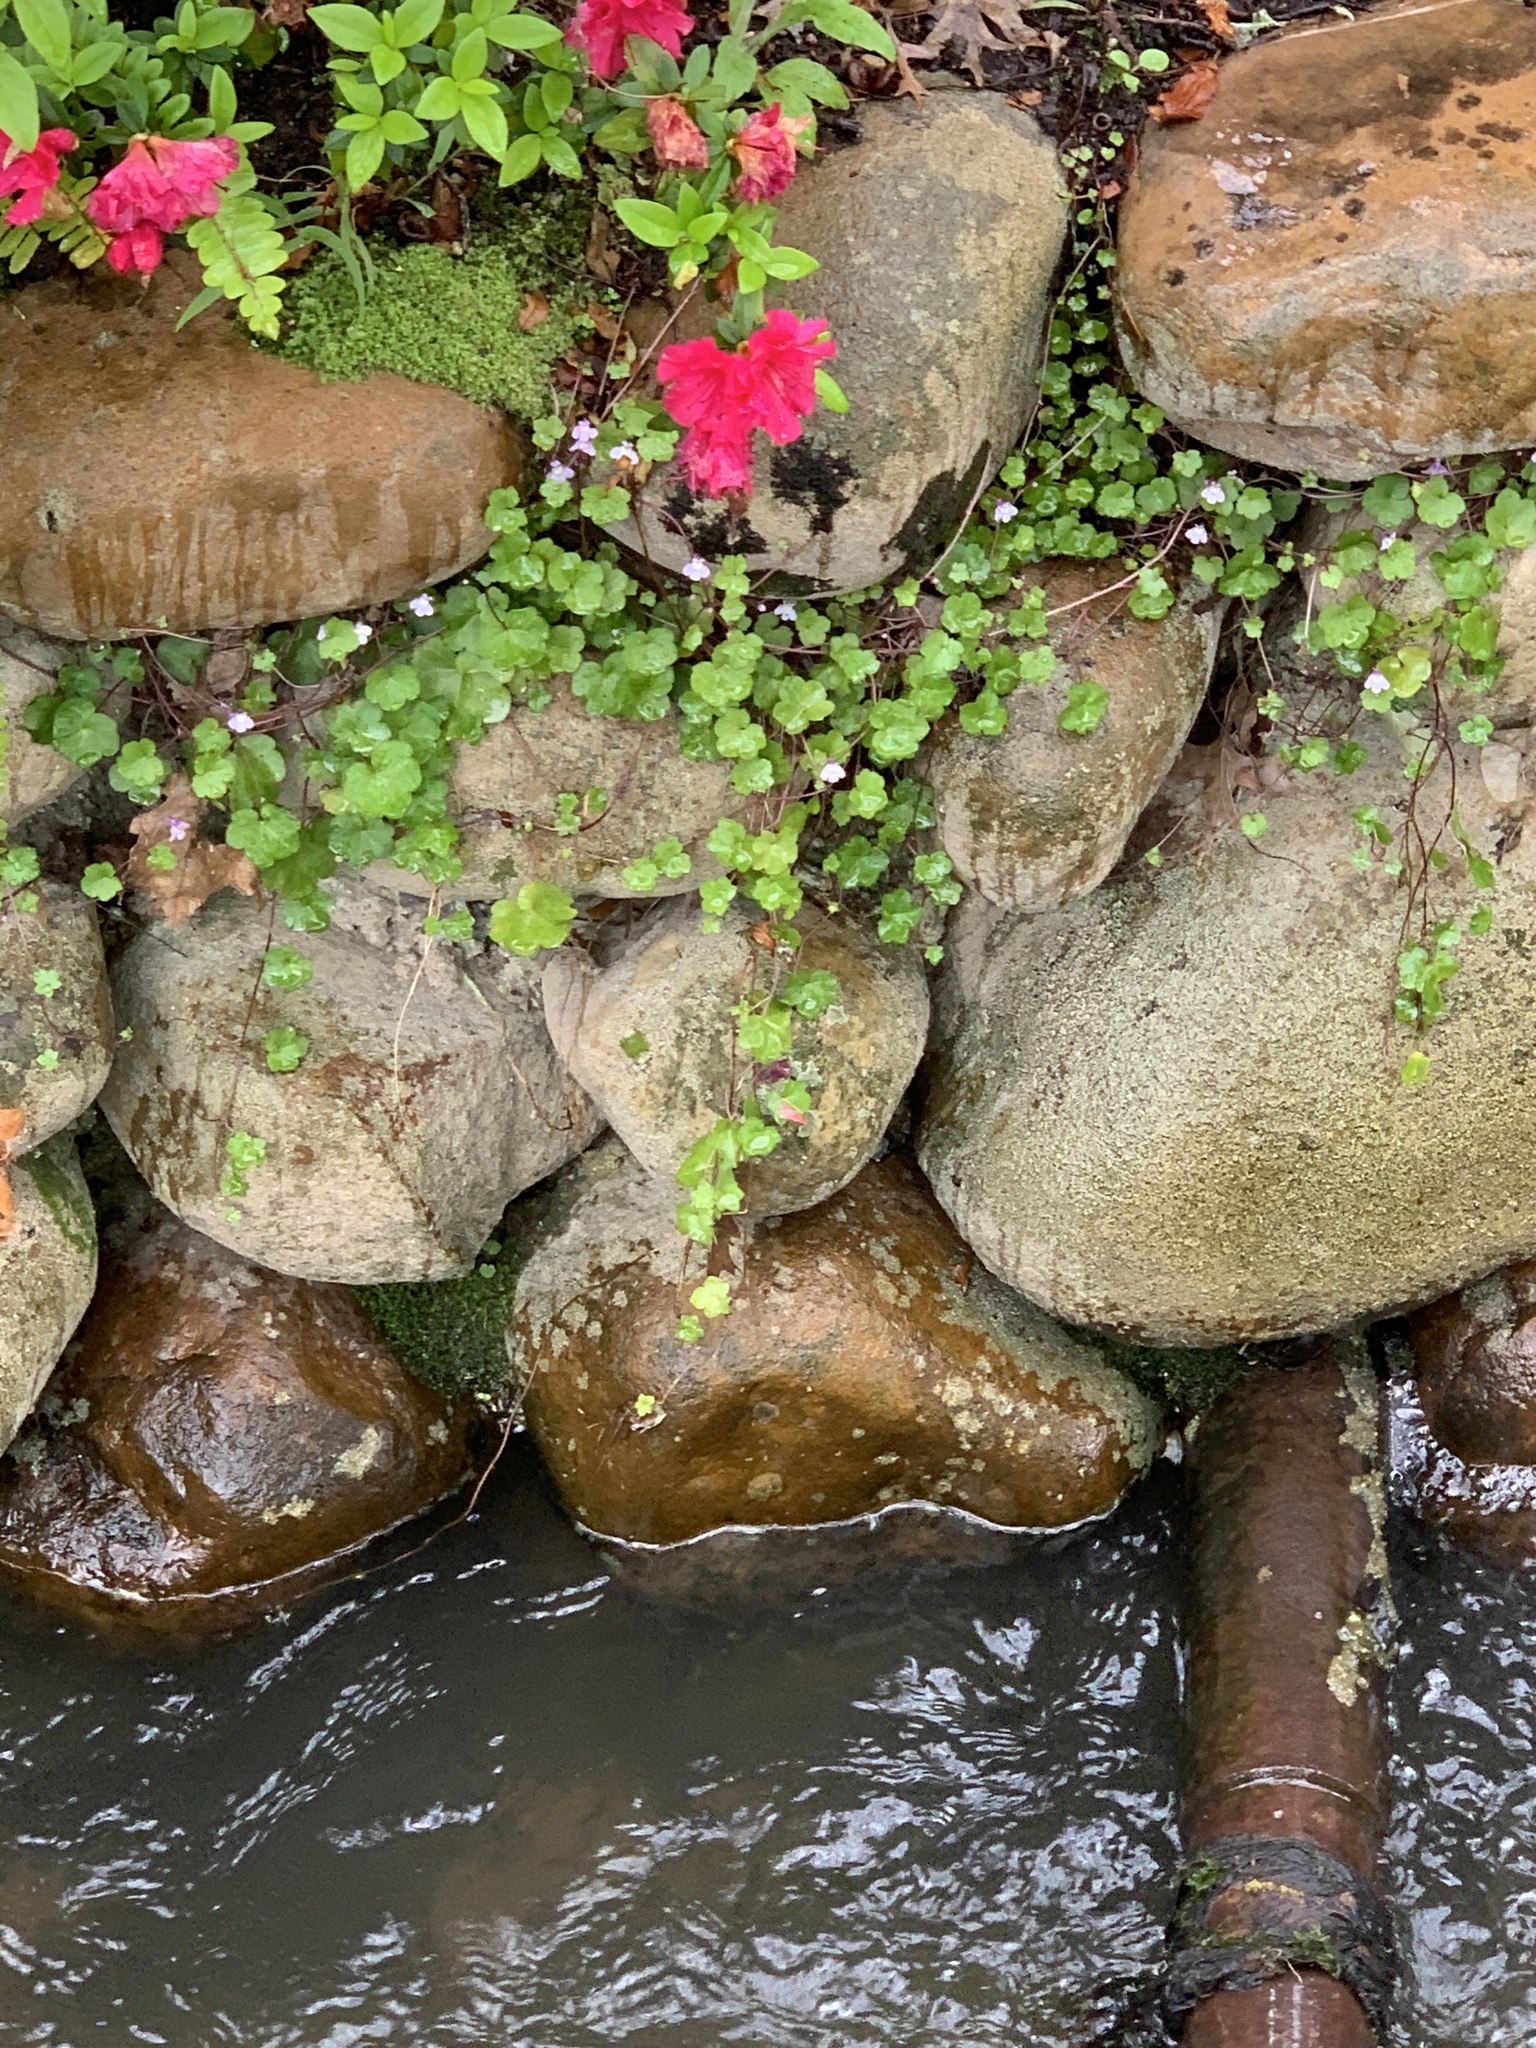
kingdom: Plantae
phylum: Tracheophyta
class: Magnoliopsida
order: Lamiales
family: Plantaginaceae
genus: Cymbalaria
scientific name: Cymbalaria muralis
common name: Ivy-leaved toadflax
